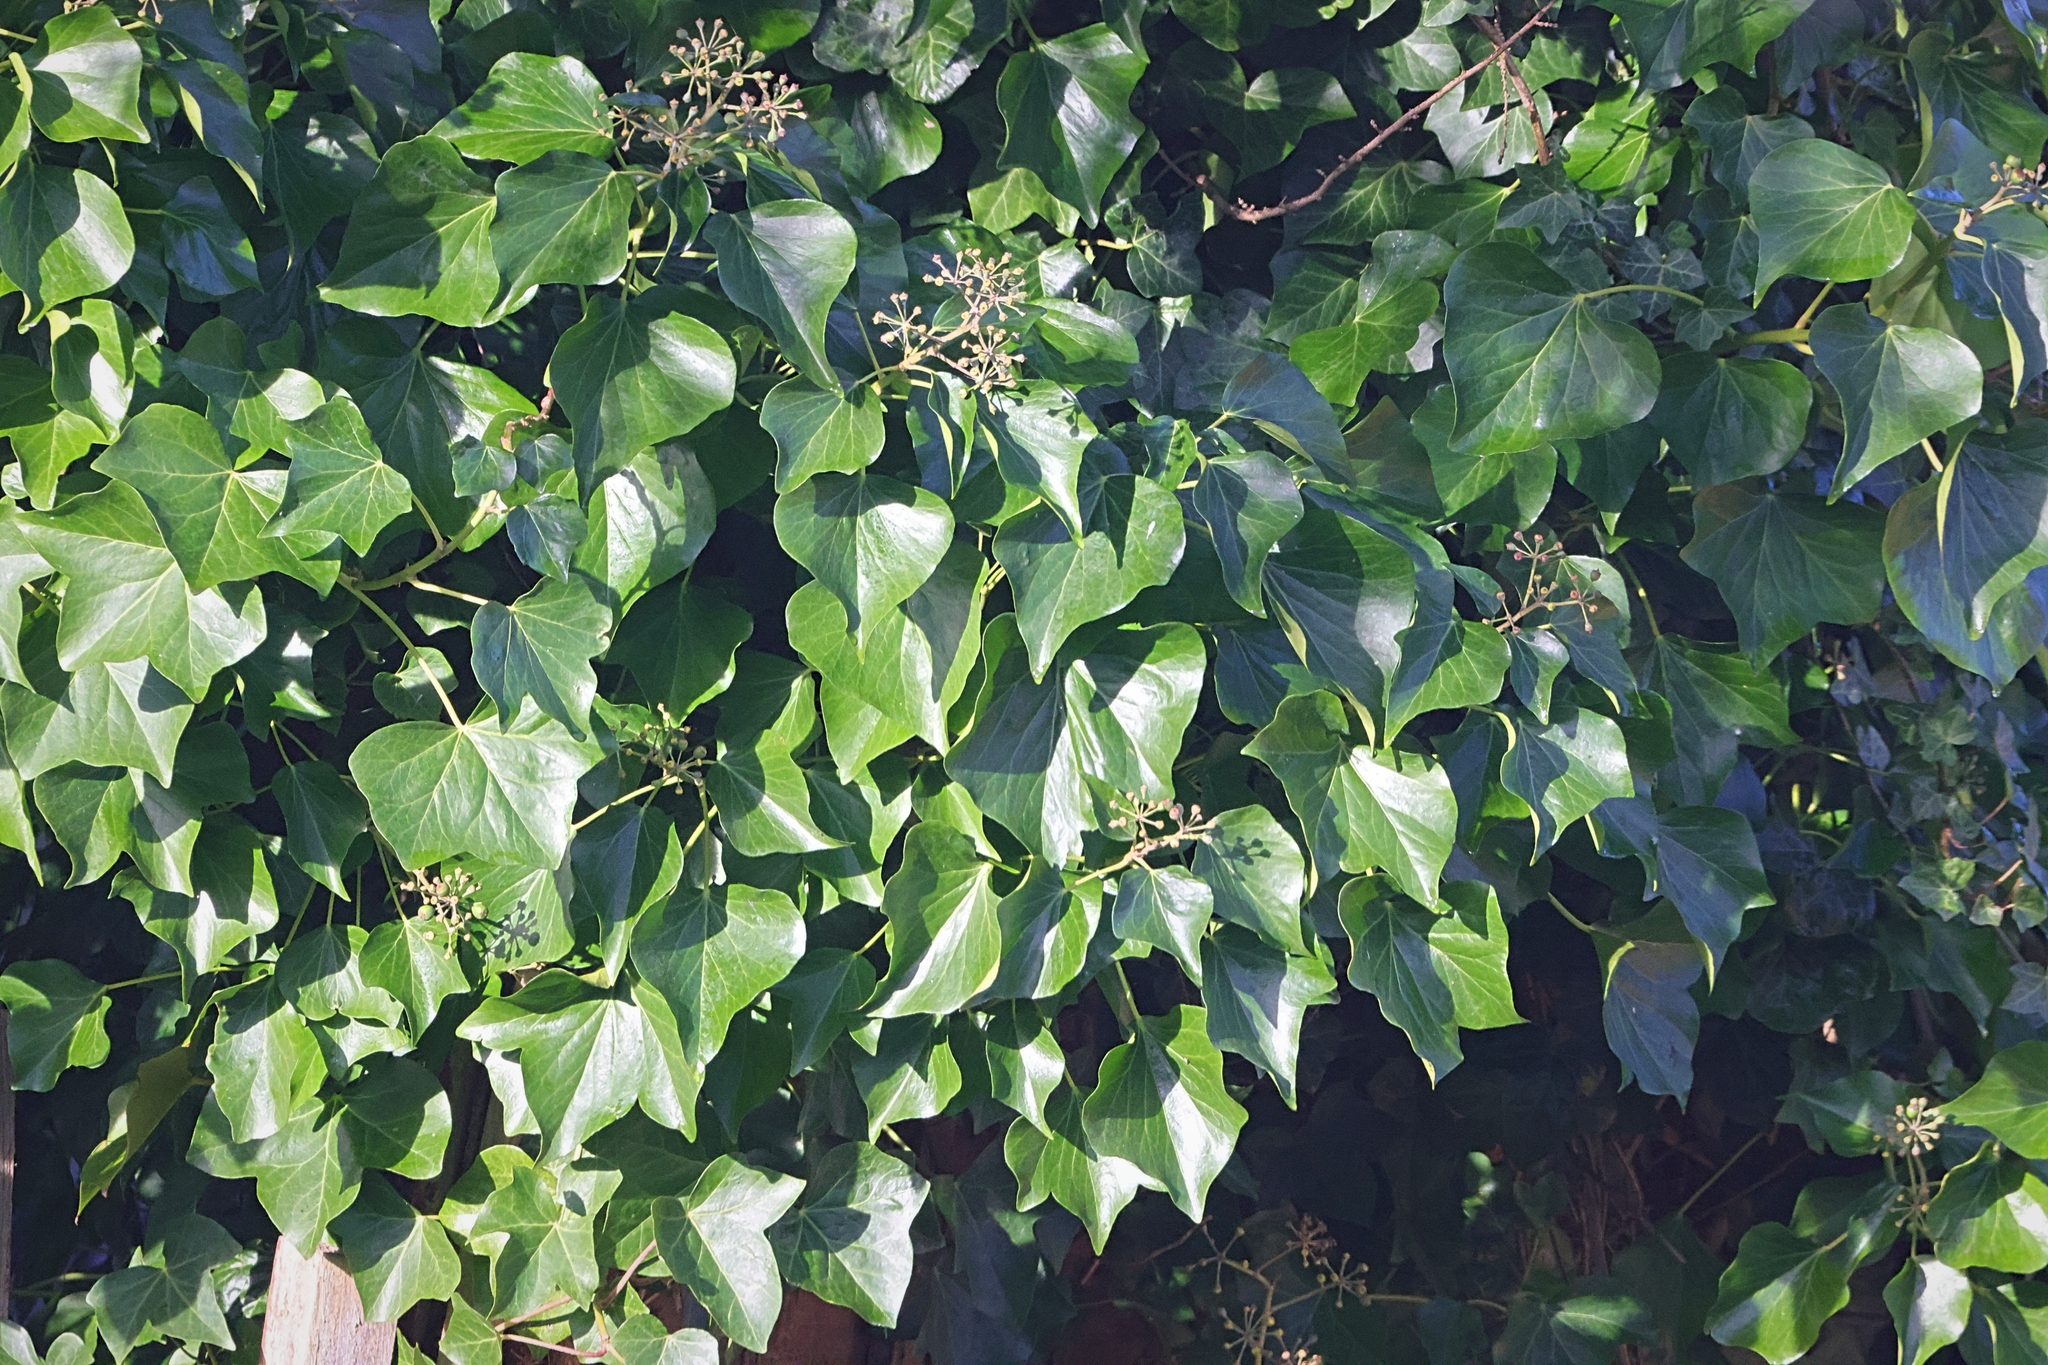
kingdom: Plantae
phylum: Tracheophyta
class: Magnoliopsida
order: Apiales
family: Araliaceae
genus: Hedera
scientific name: Hedera helix
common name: Ivy
